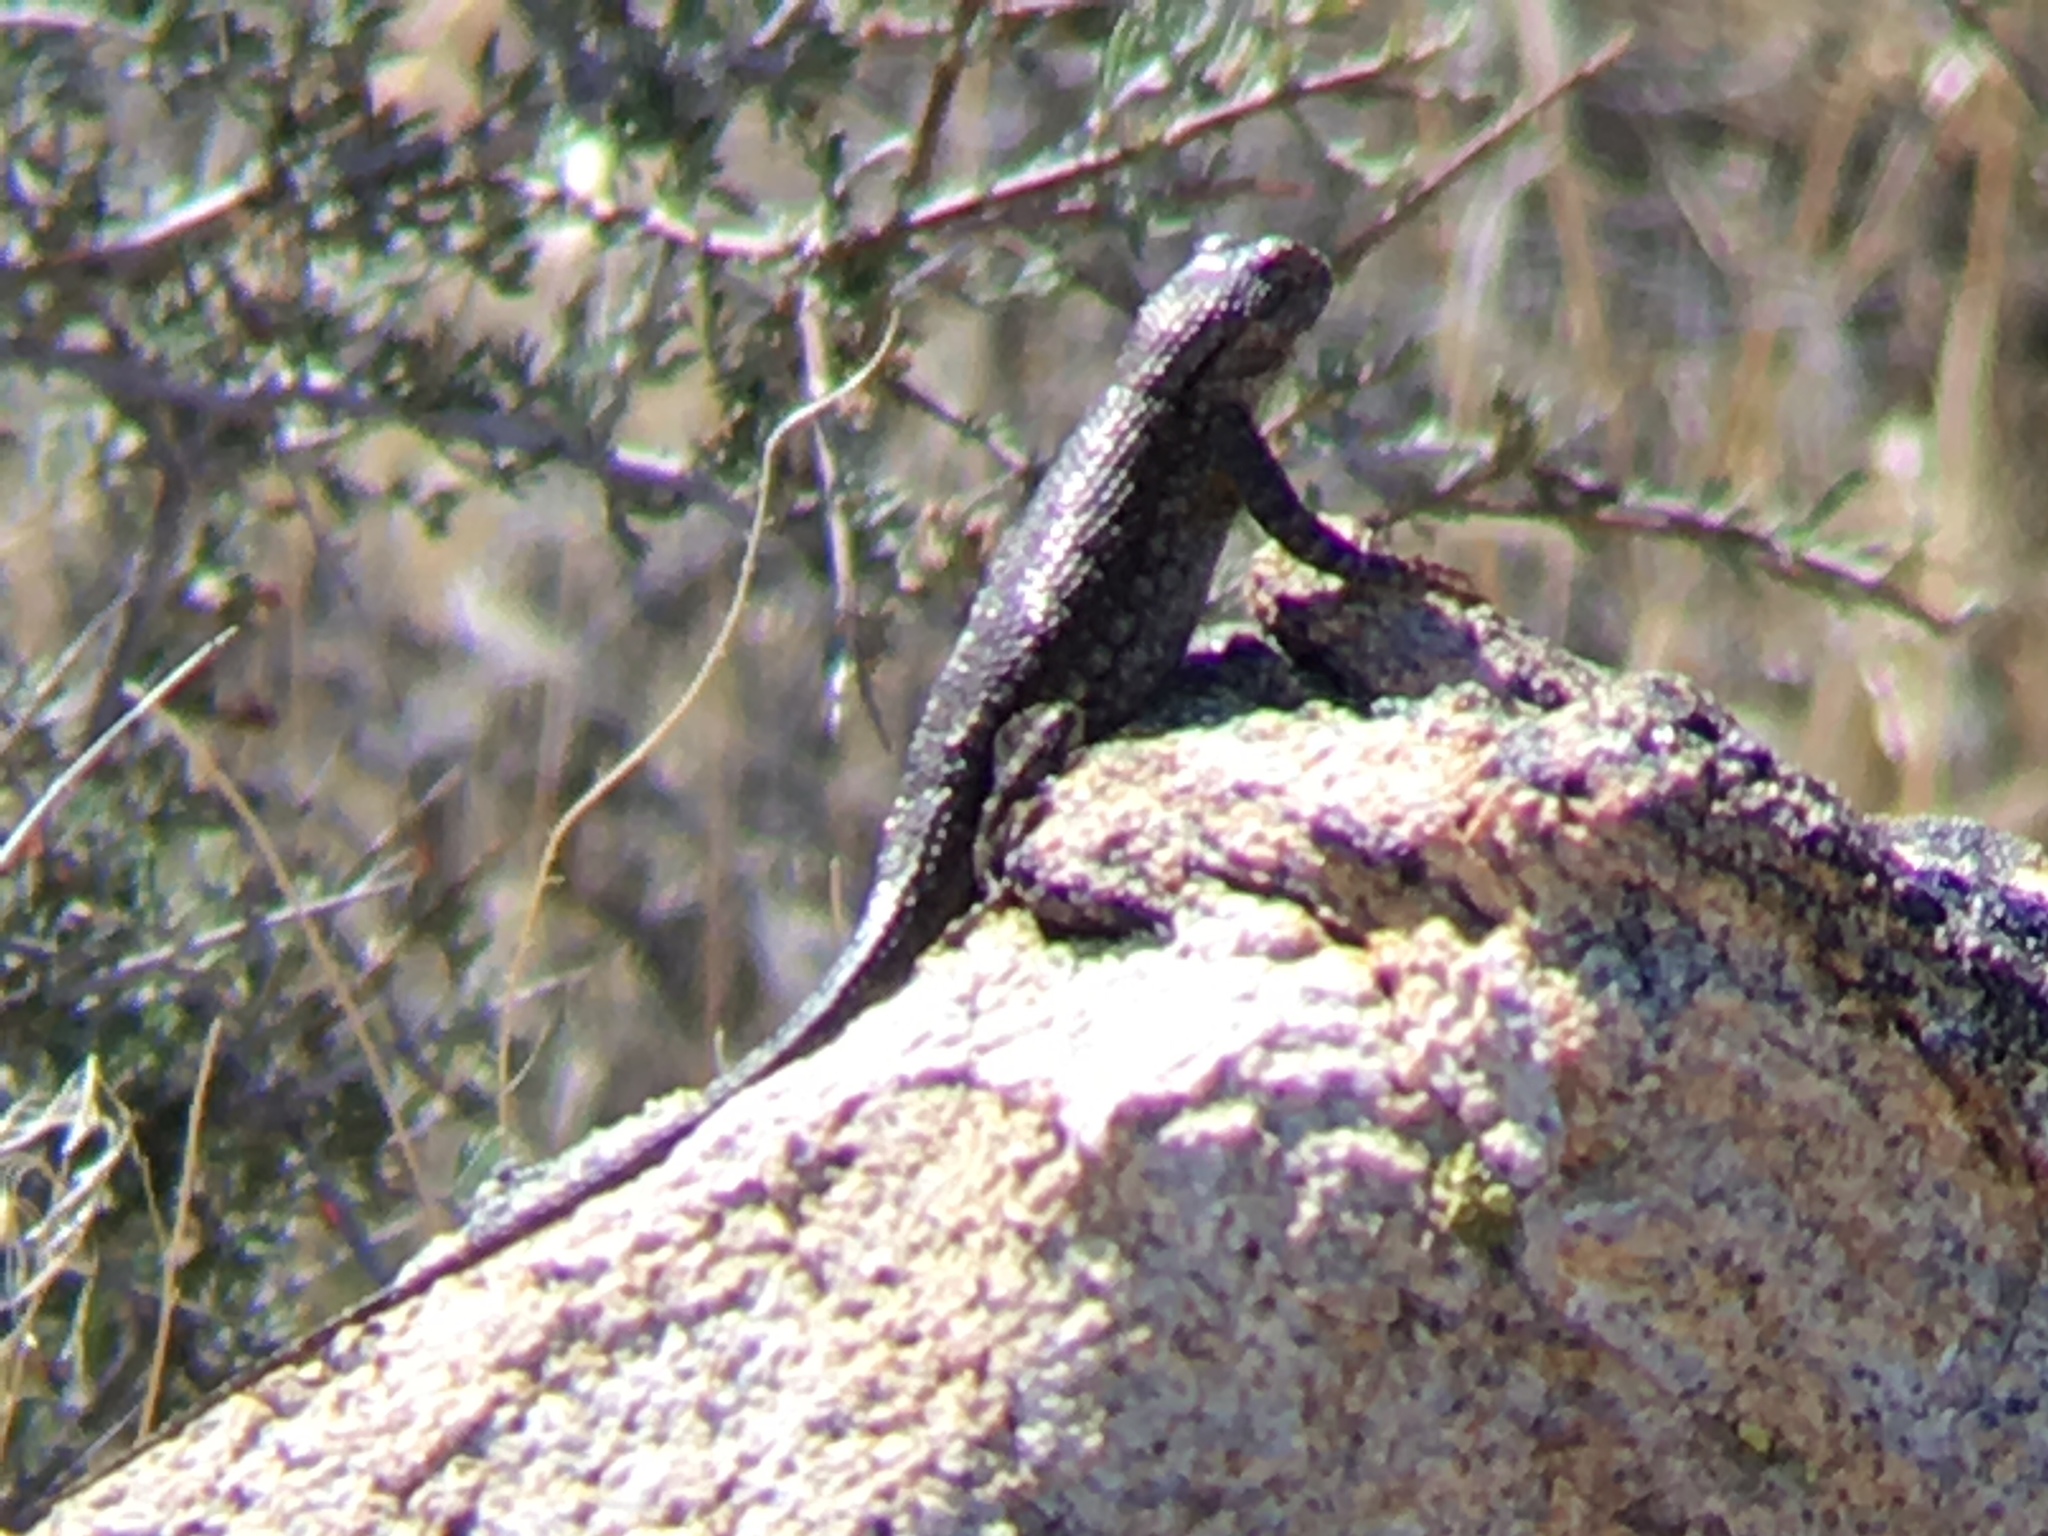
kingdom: Animalia
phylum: Chordata
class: Squamata
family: Phrynosomatidae
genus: Sceloporus
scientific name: Sceloporus occidentalis
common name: Western fence lizard
